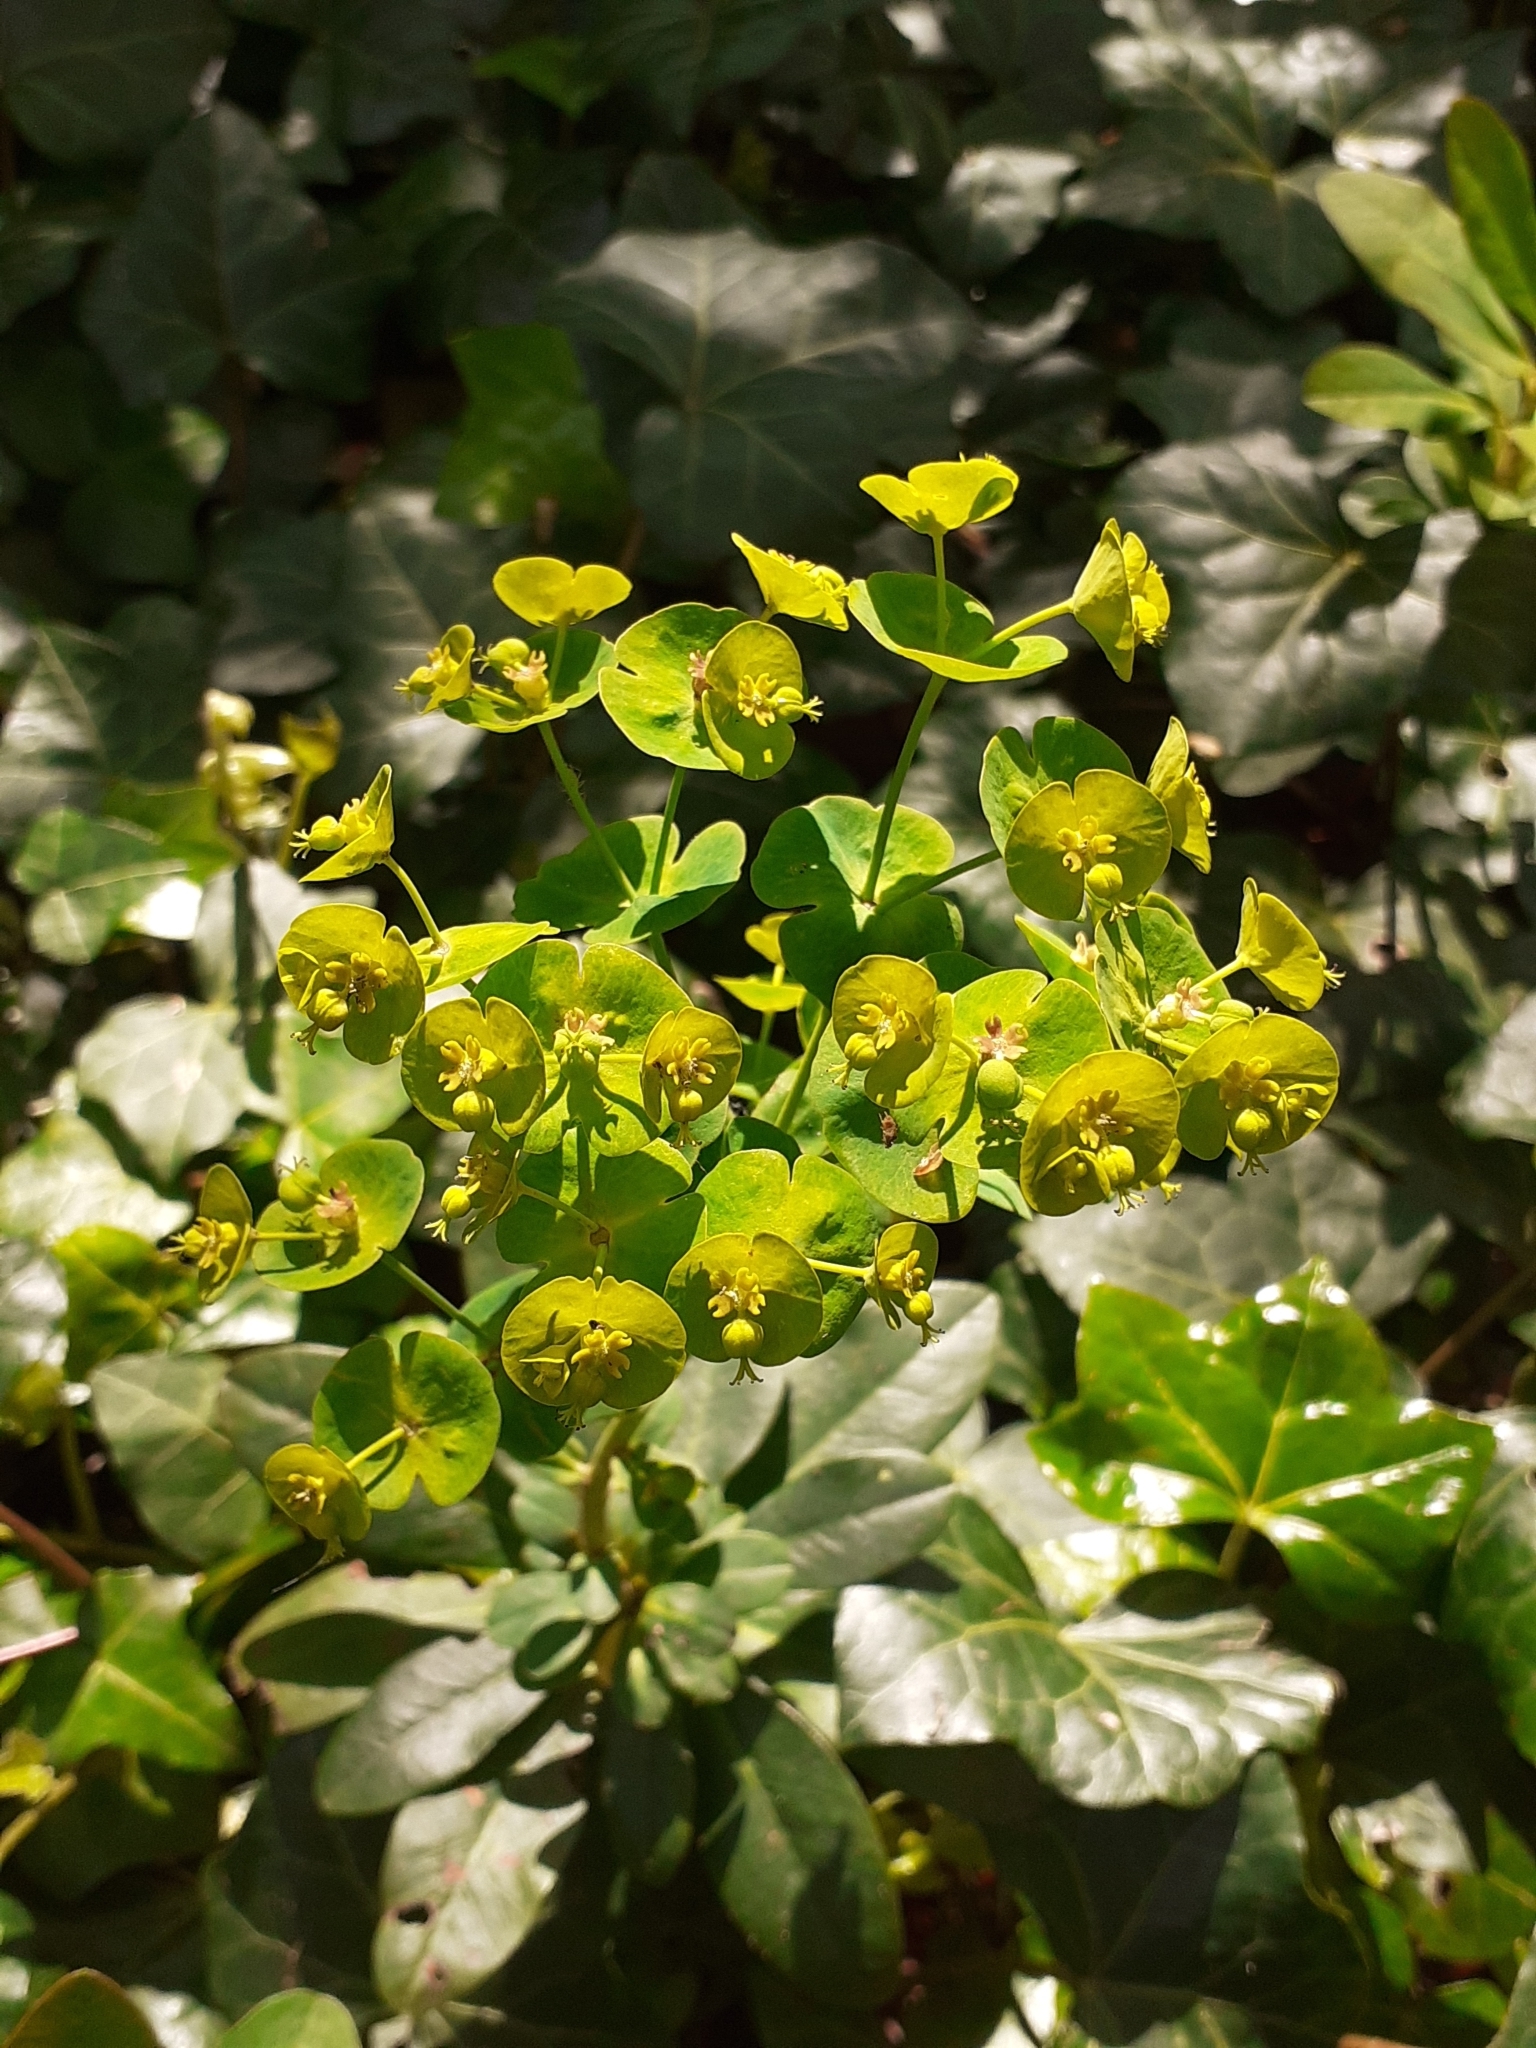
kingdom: Plantae
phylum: Tracheophyta
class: Magnoliopsida
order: Malpighiales
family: Euphorbiaceae
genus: Euphorbia
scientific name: Euphorbia amygdaloides
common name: Wood spurge
